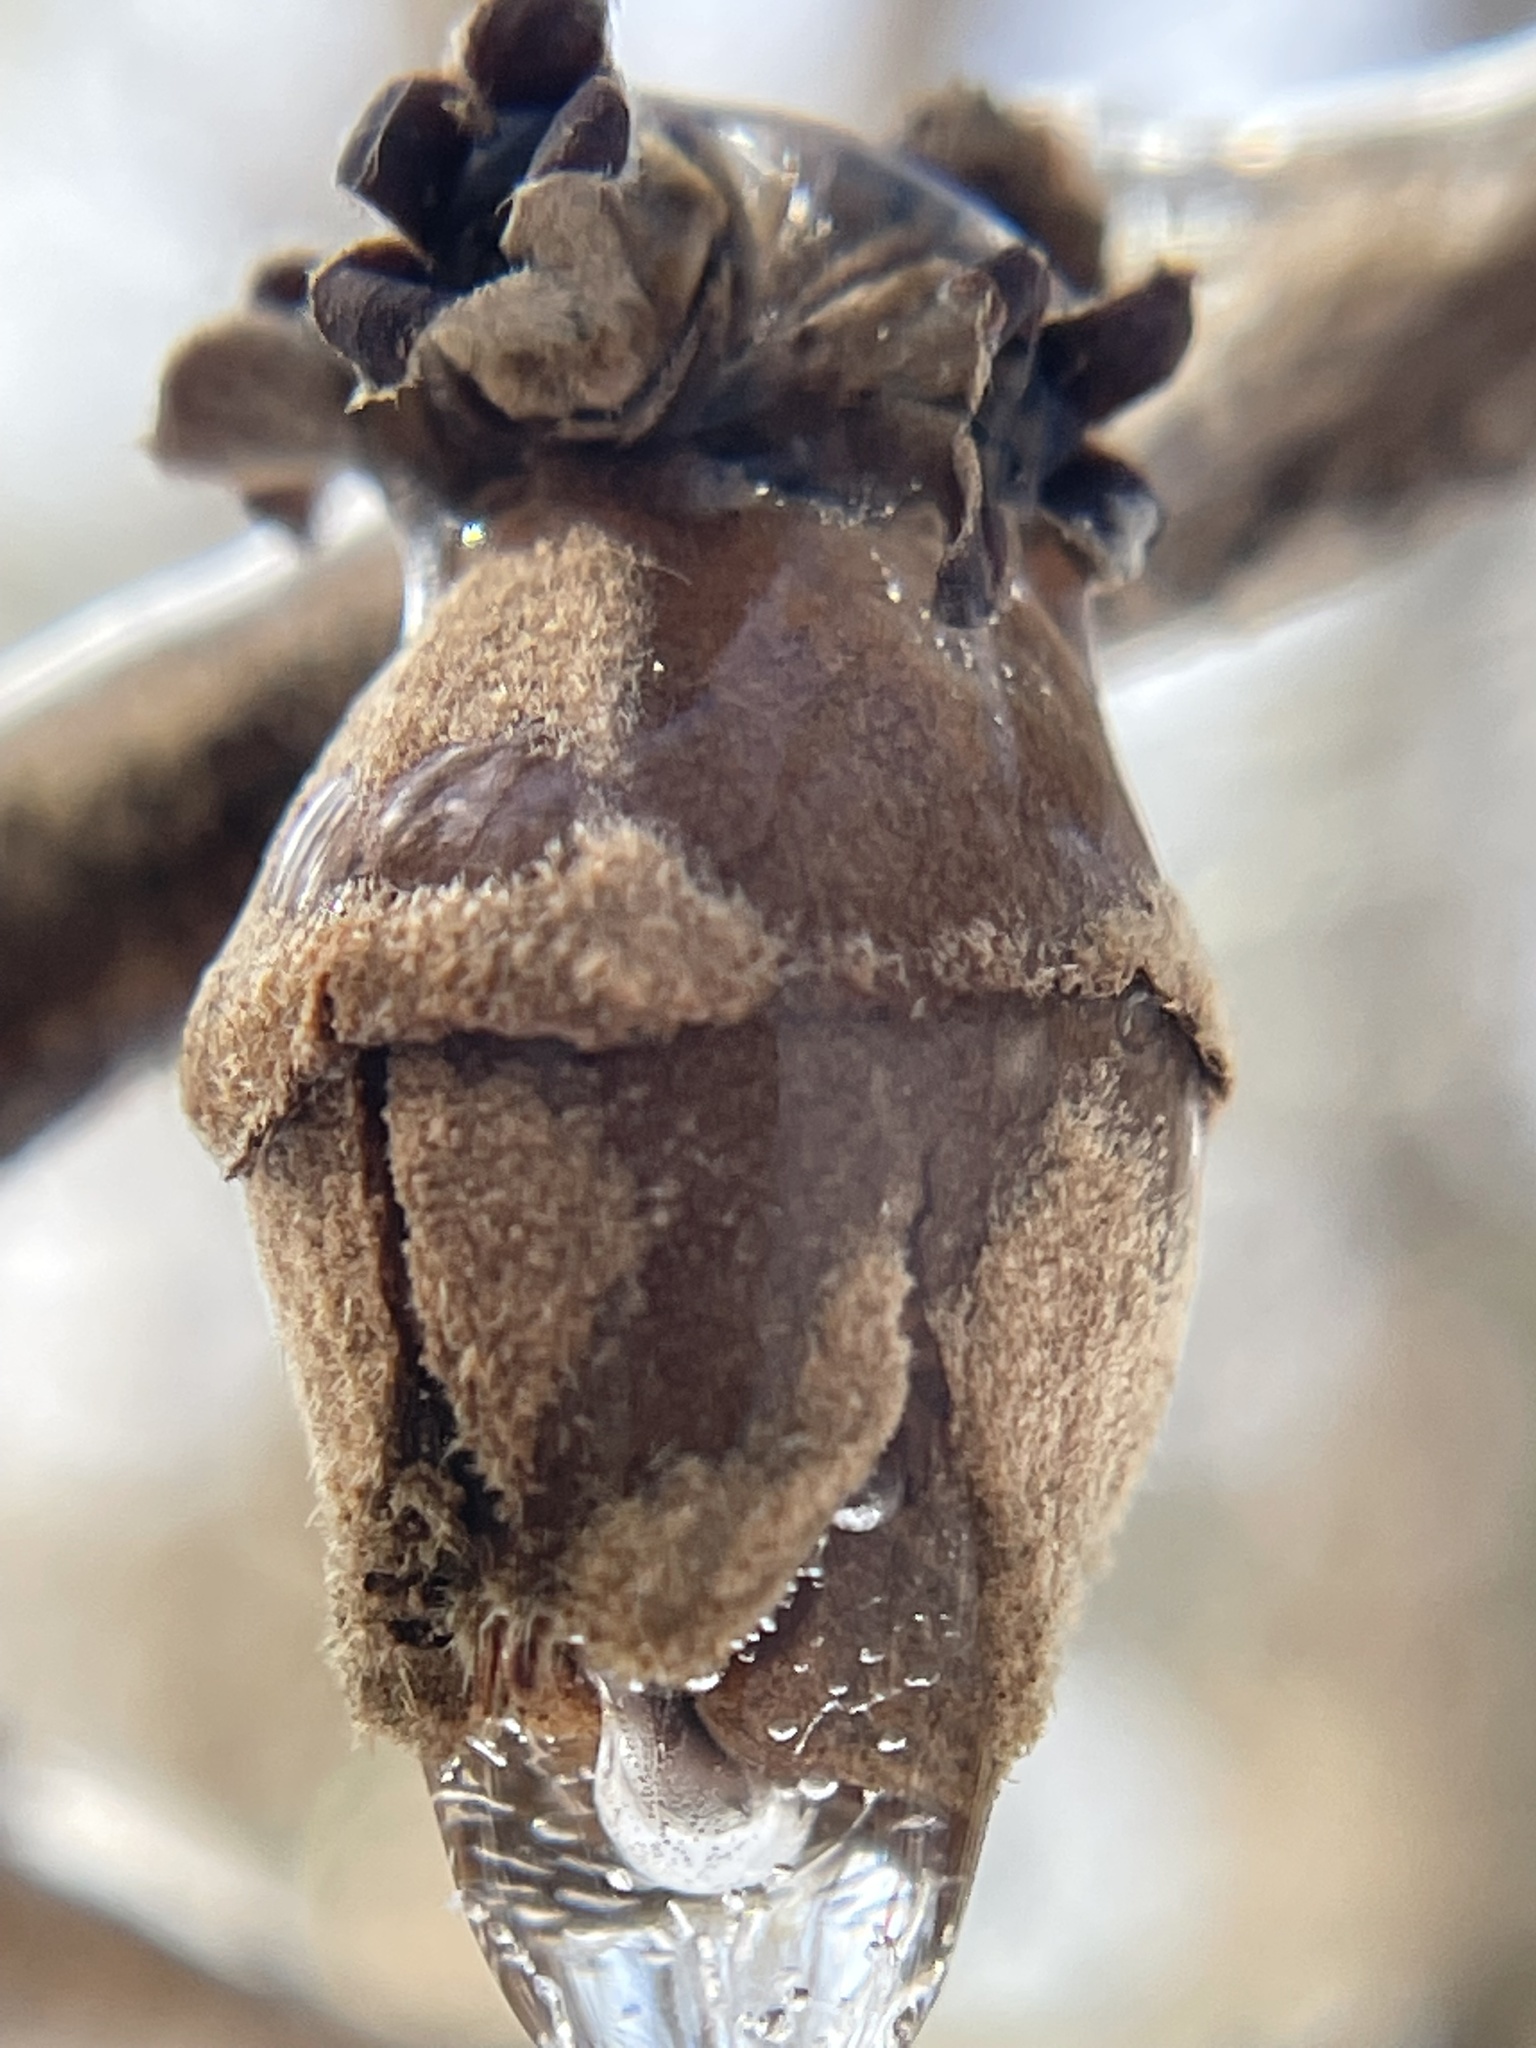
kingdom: Plantae
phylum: Tracheophyta
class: Magnoliopsida
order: Saxifragales
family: Hamamelidaceae
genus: Hamamelis
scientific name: Hamamelis virginiana
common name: Witch-hazel
